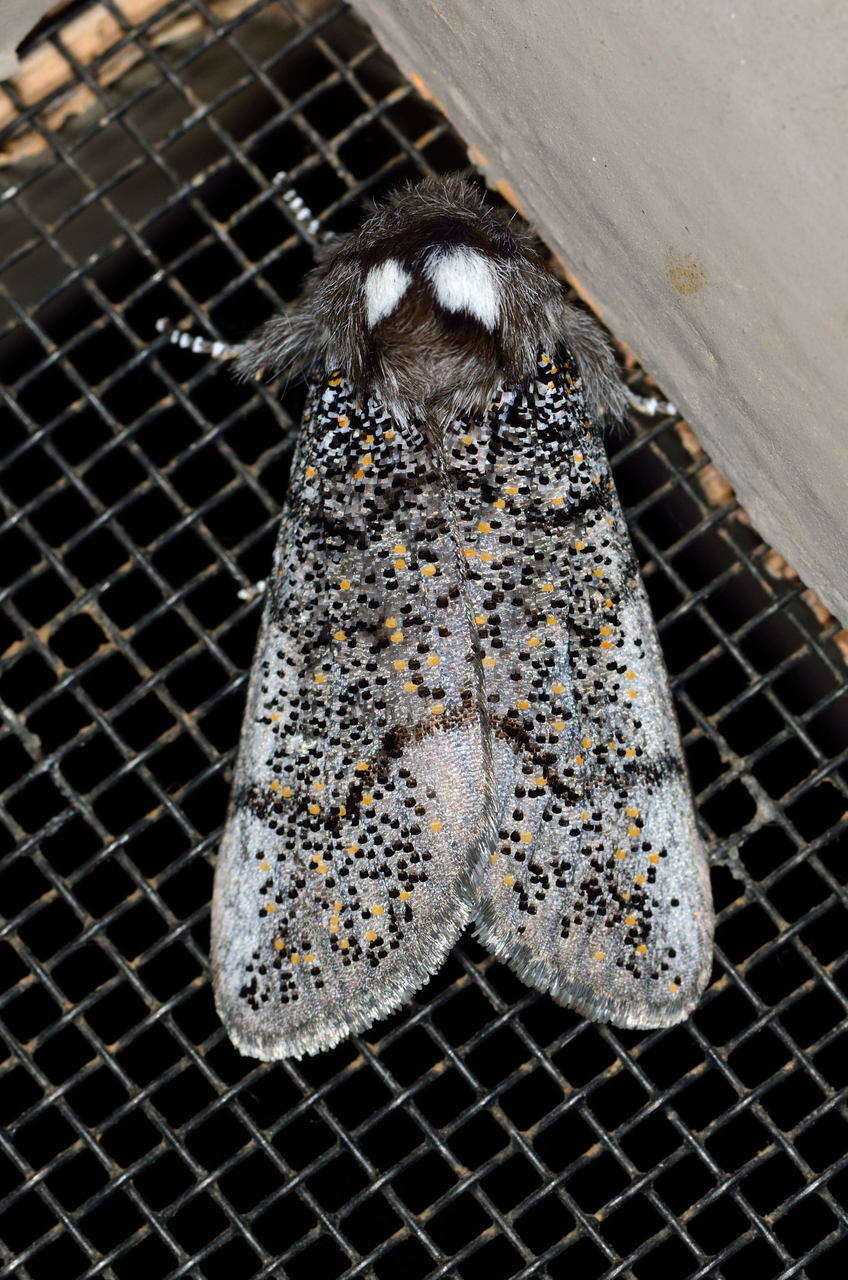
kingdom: Animalia
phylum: Arthropoda
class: Insecta
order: Lepidoptera
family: Oenosandridae
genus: Oenosandra
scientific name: Oenosandra boisduvalii
